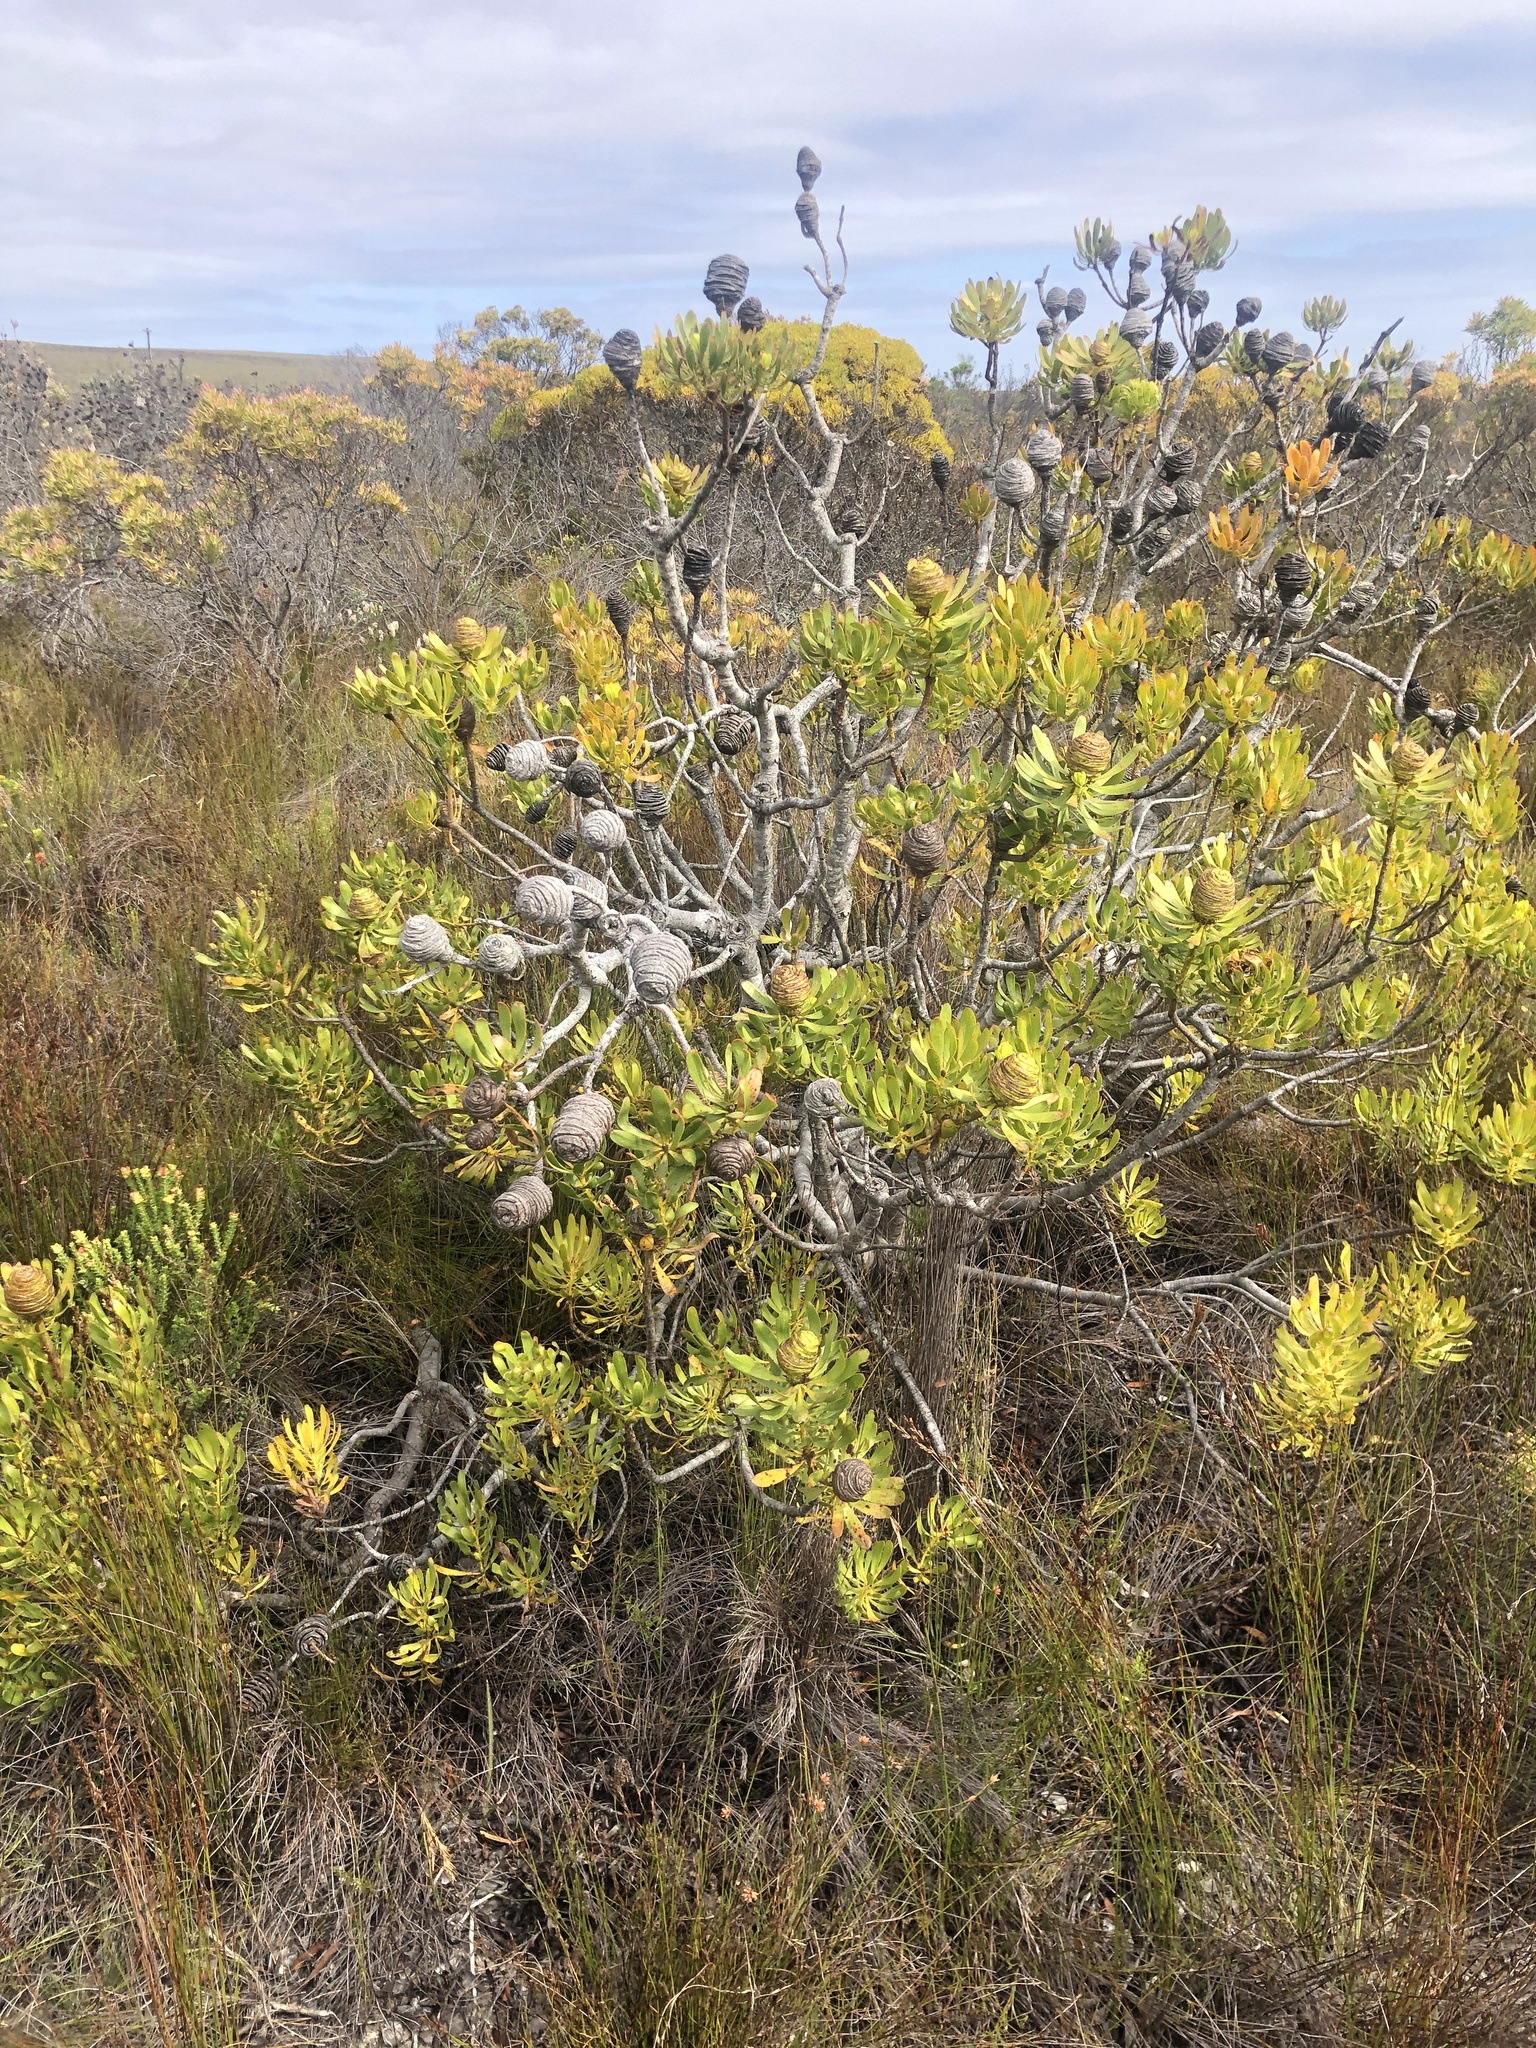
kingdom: Plantae
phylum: Tracheophyta
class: Magnoliopsida
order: Proteales
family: Proteaceae
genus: Leucadendron
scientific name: Leucadendron platyspermum
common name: Plate-seed conebush
